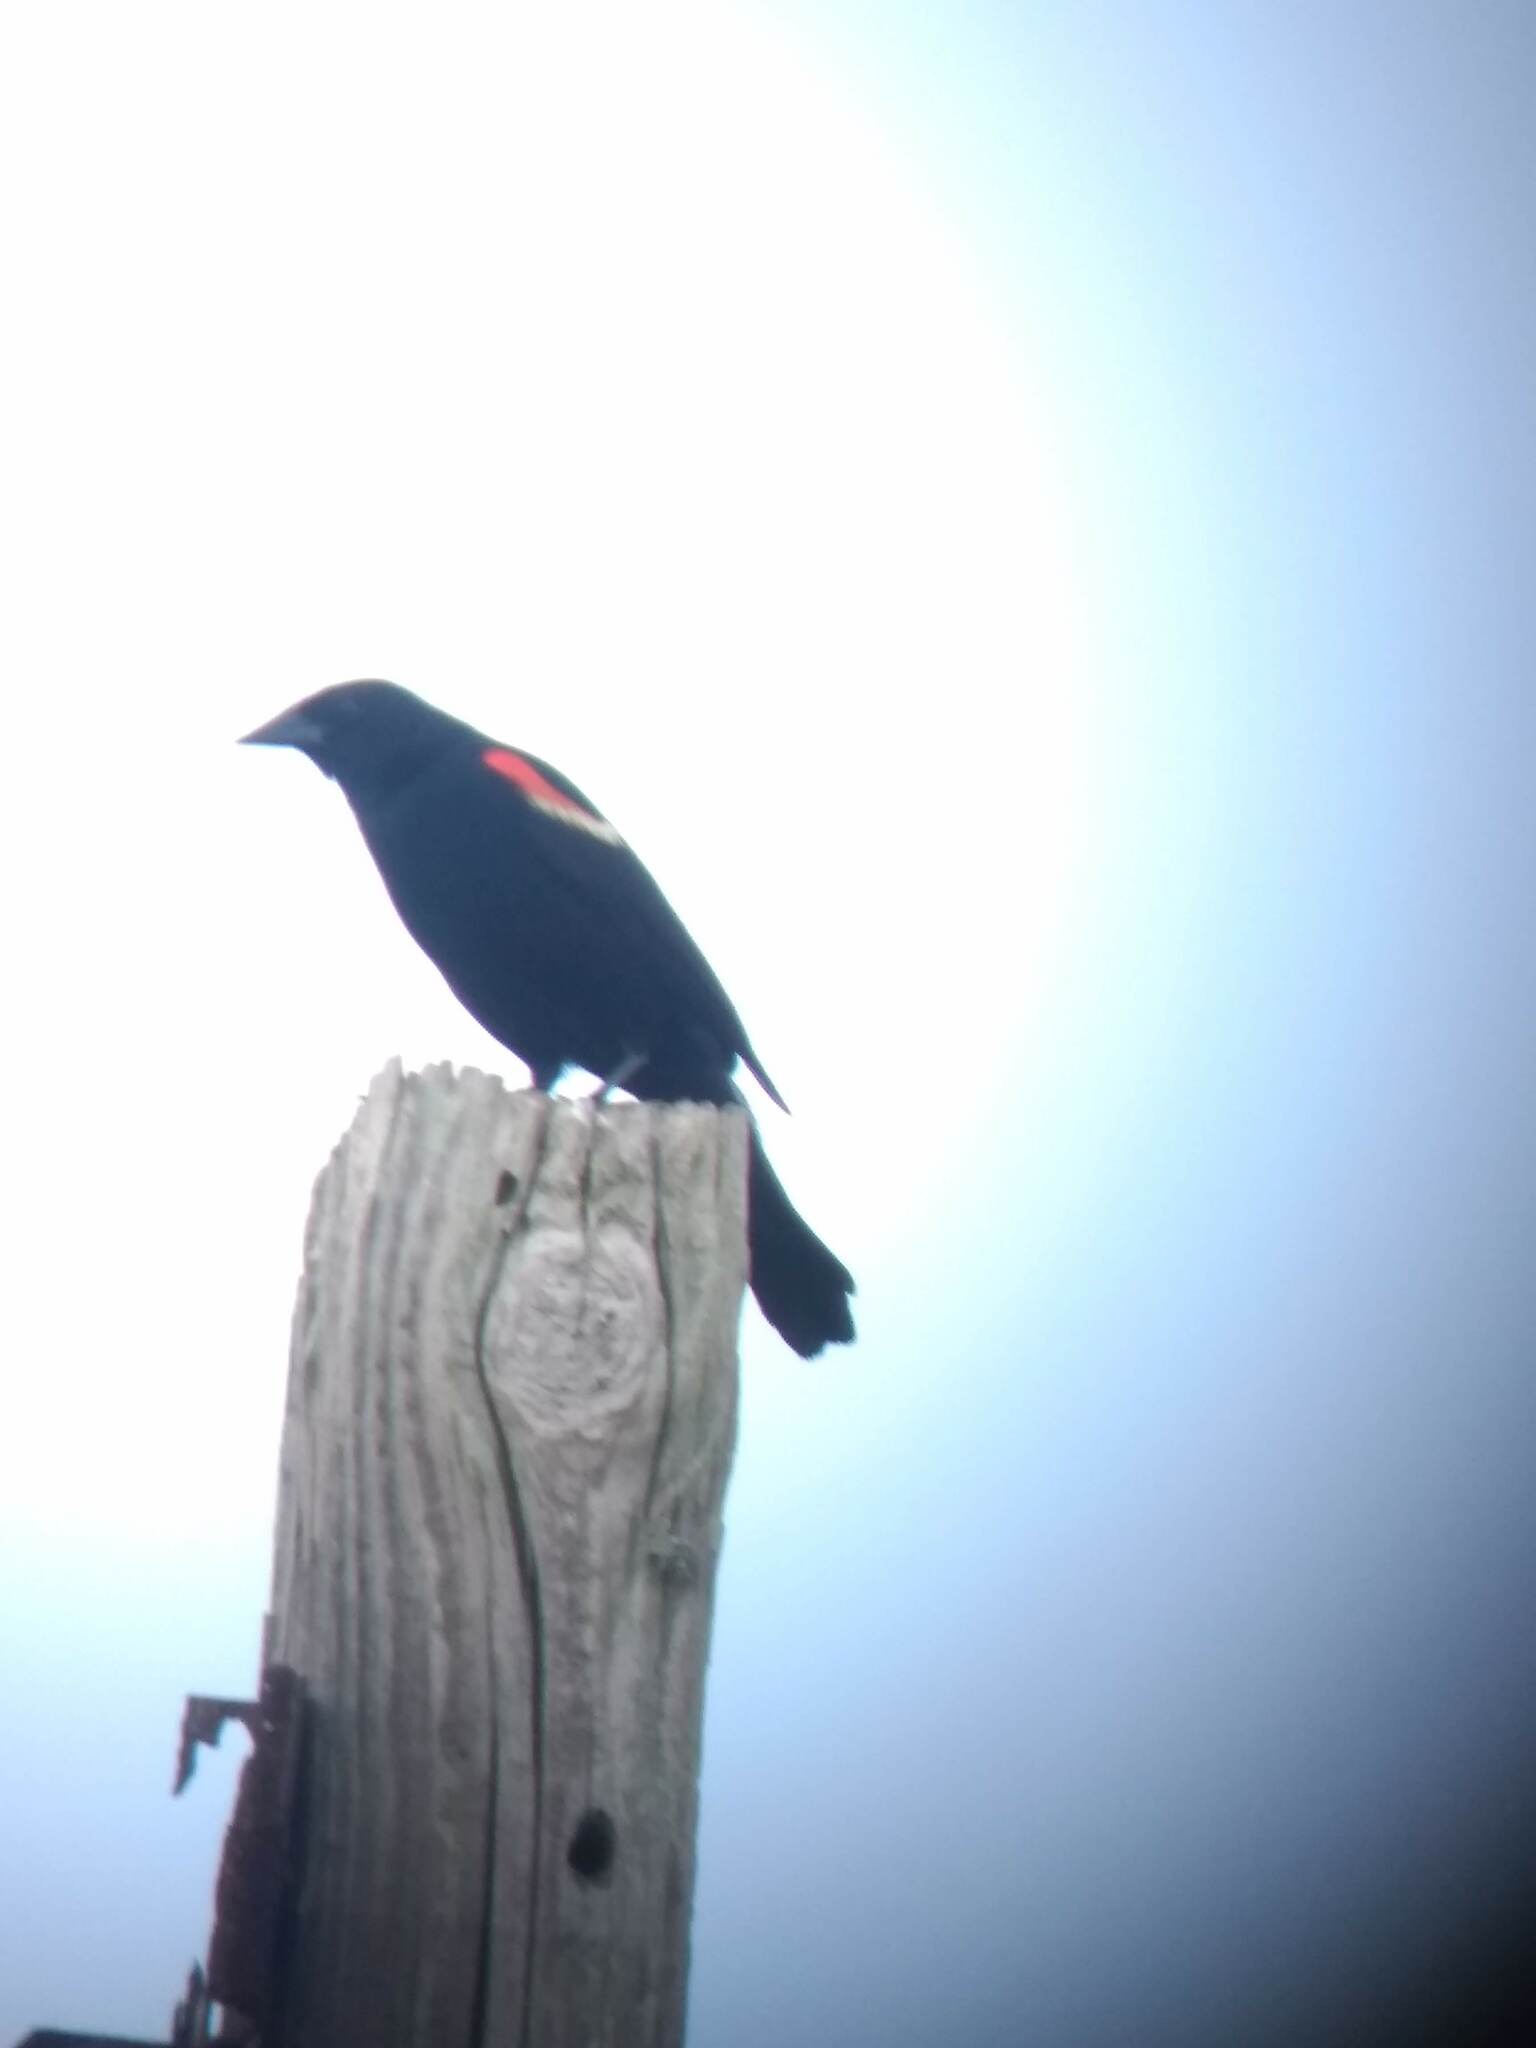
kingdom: Animalia
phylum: Chordata
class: Aves
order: Passeriformes
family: Icteridae
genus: Agelaius
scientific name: Agelaius phoeniceus
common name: Red-winged blackbird
